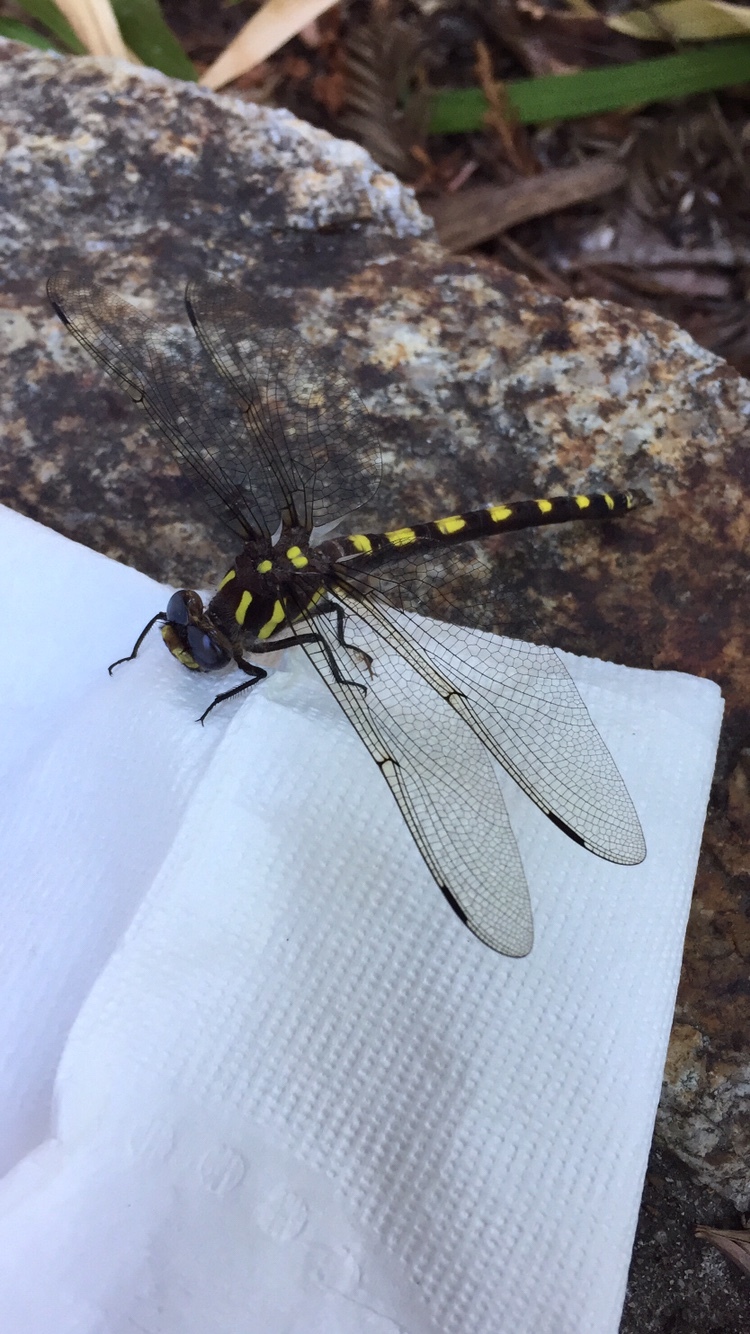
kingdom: Animalia
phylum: Arthropoda
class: Insecta
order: Odonata
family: Cordulegastridae
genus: Cordulegaster
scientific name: Cordulegaster dorsalis
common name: Pacific spiketail
